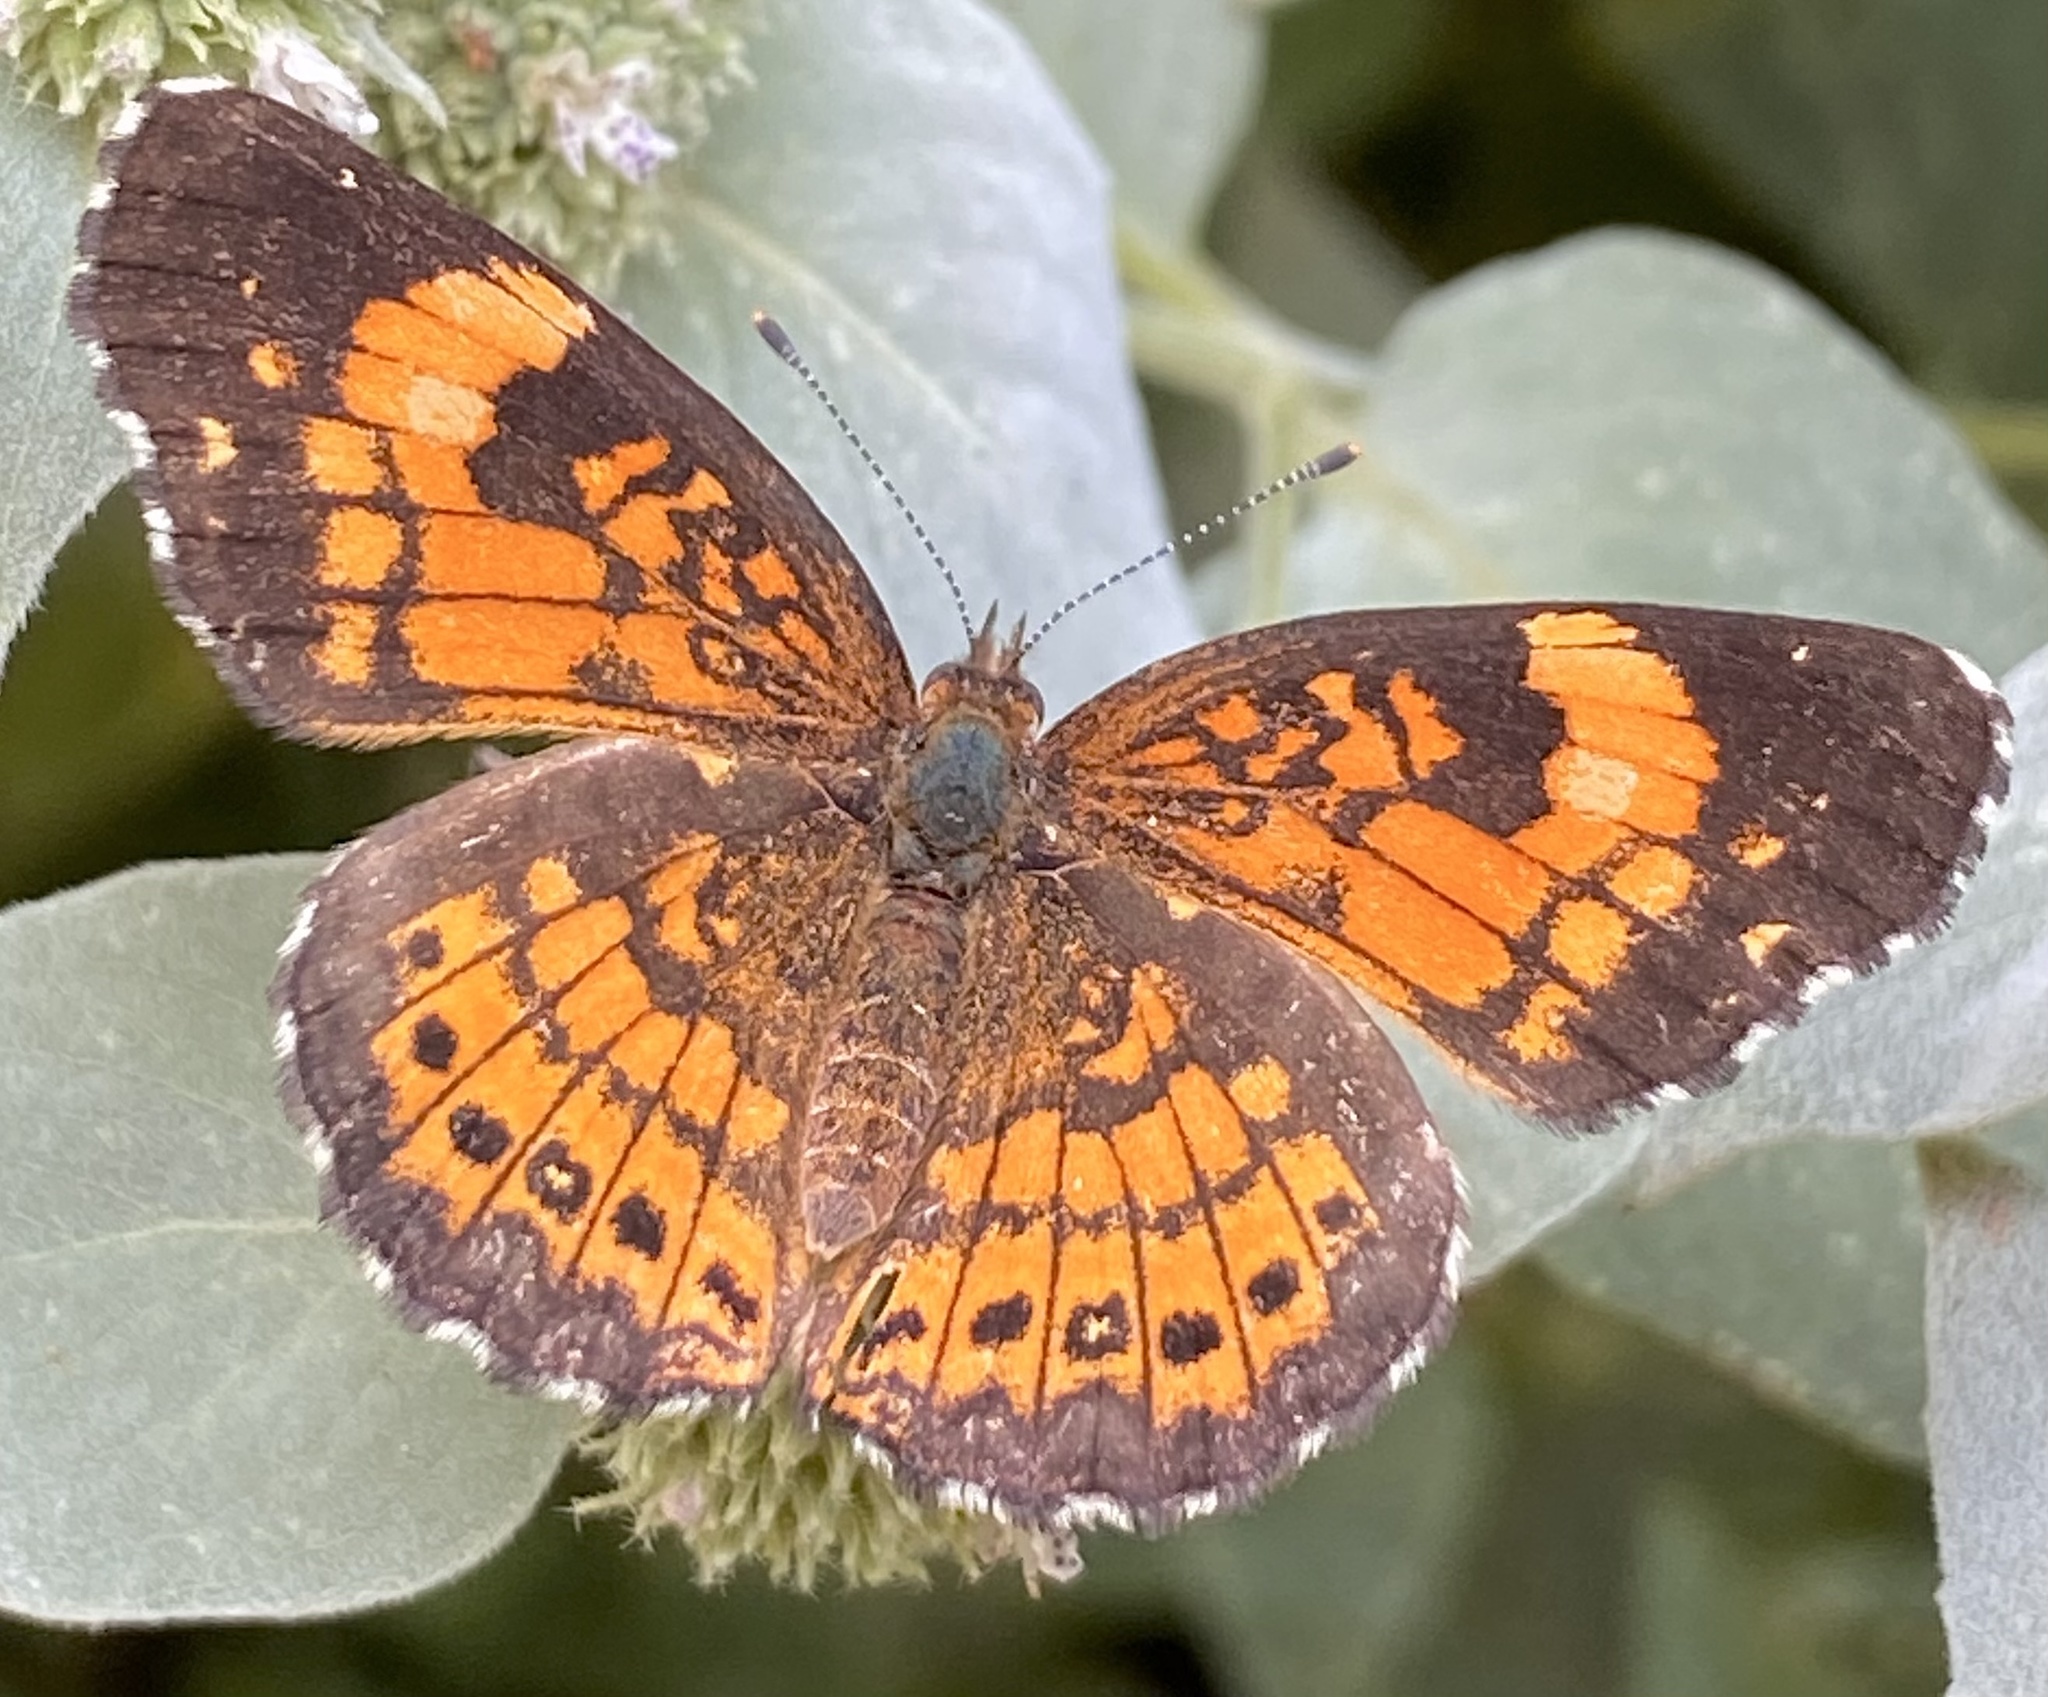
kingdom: Animalia
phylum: Arthropoda
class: Insecta
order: Lepidoptera
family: Nymphalidae
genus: Chlosyne
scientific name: Chlosyne nycteis
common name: Silvery checkerspot
